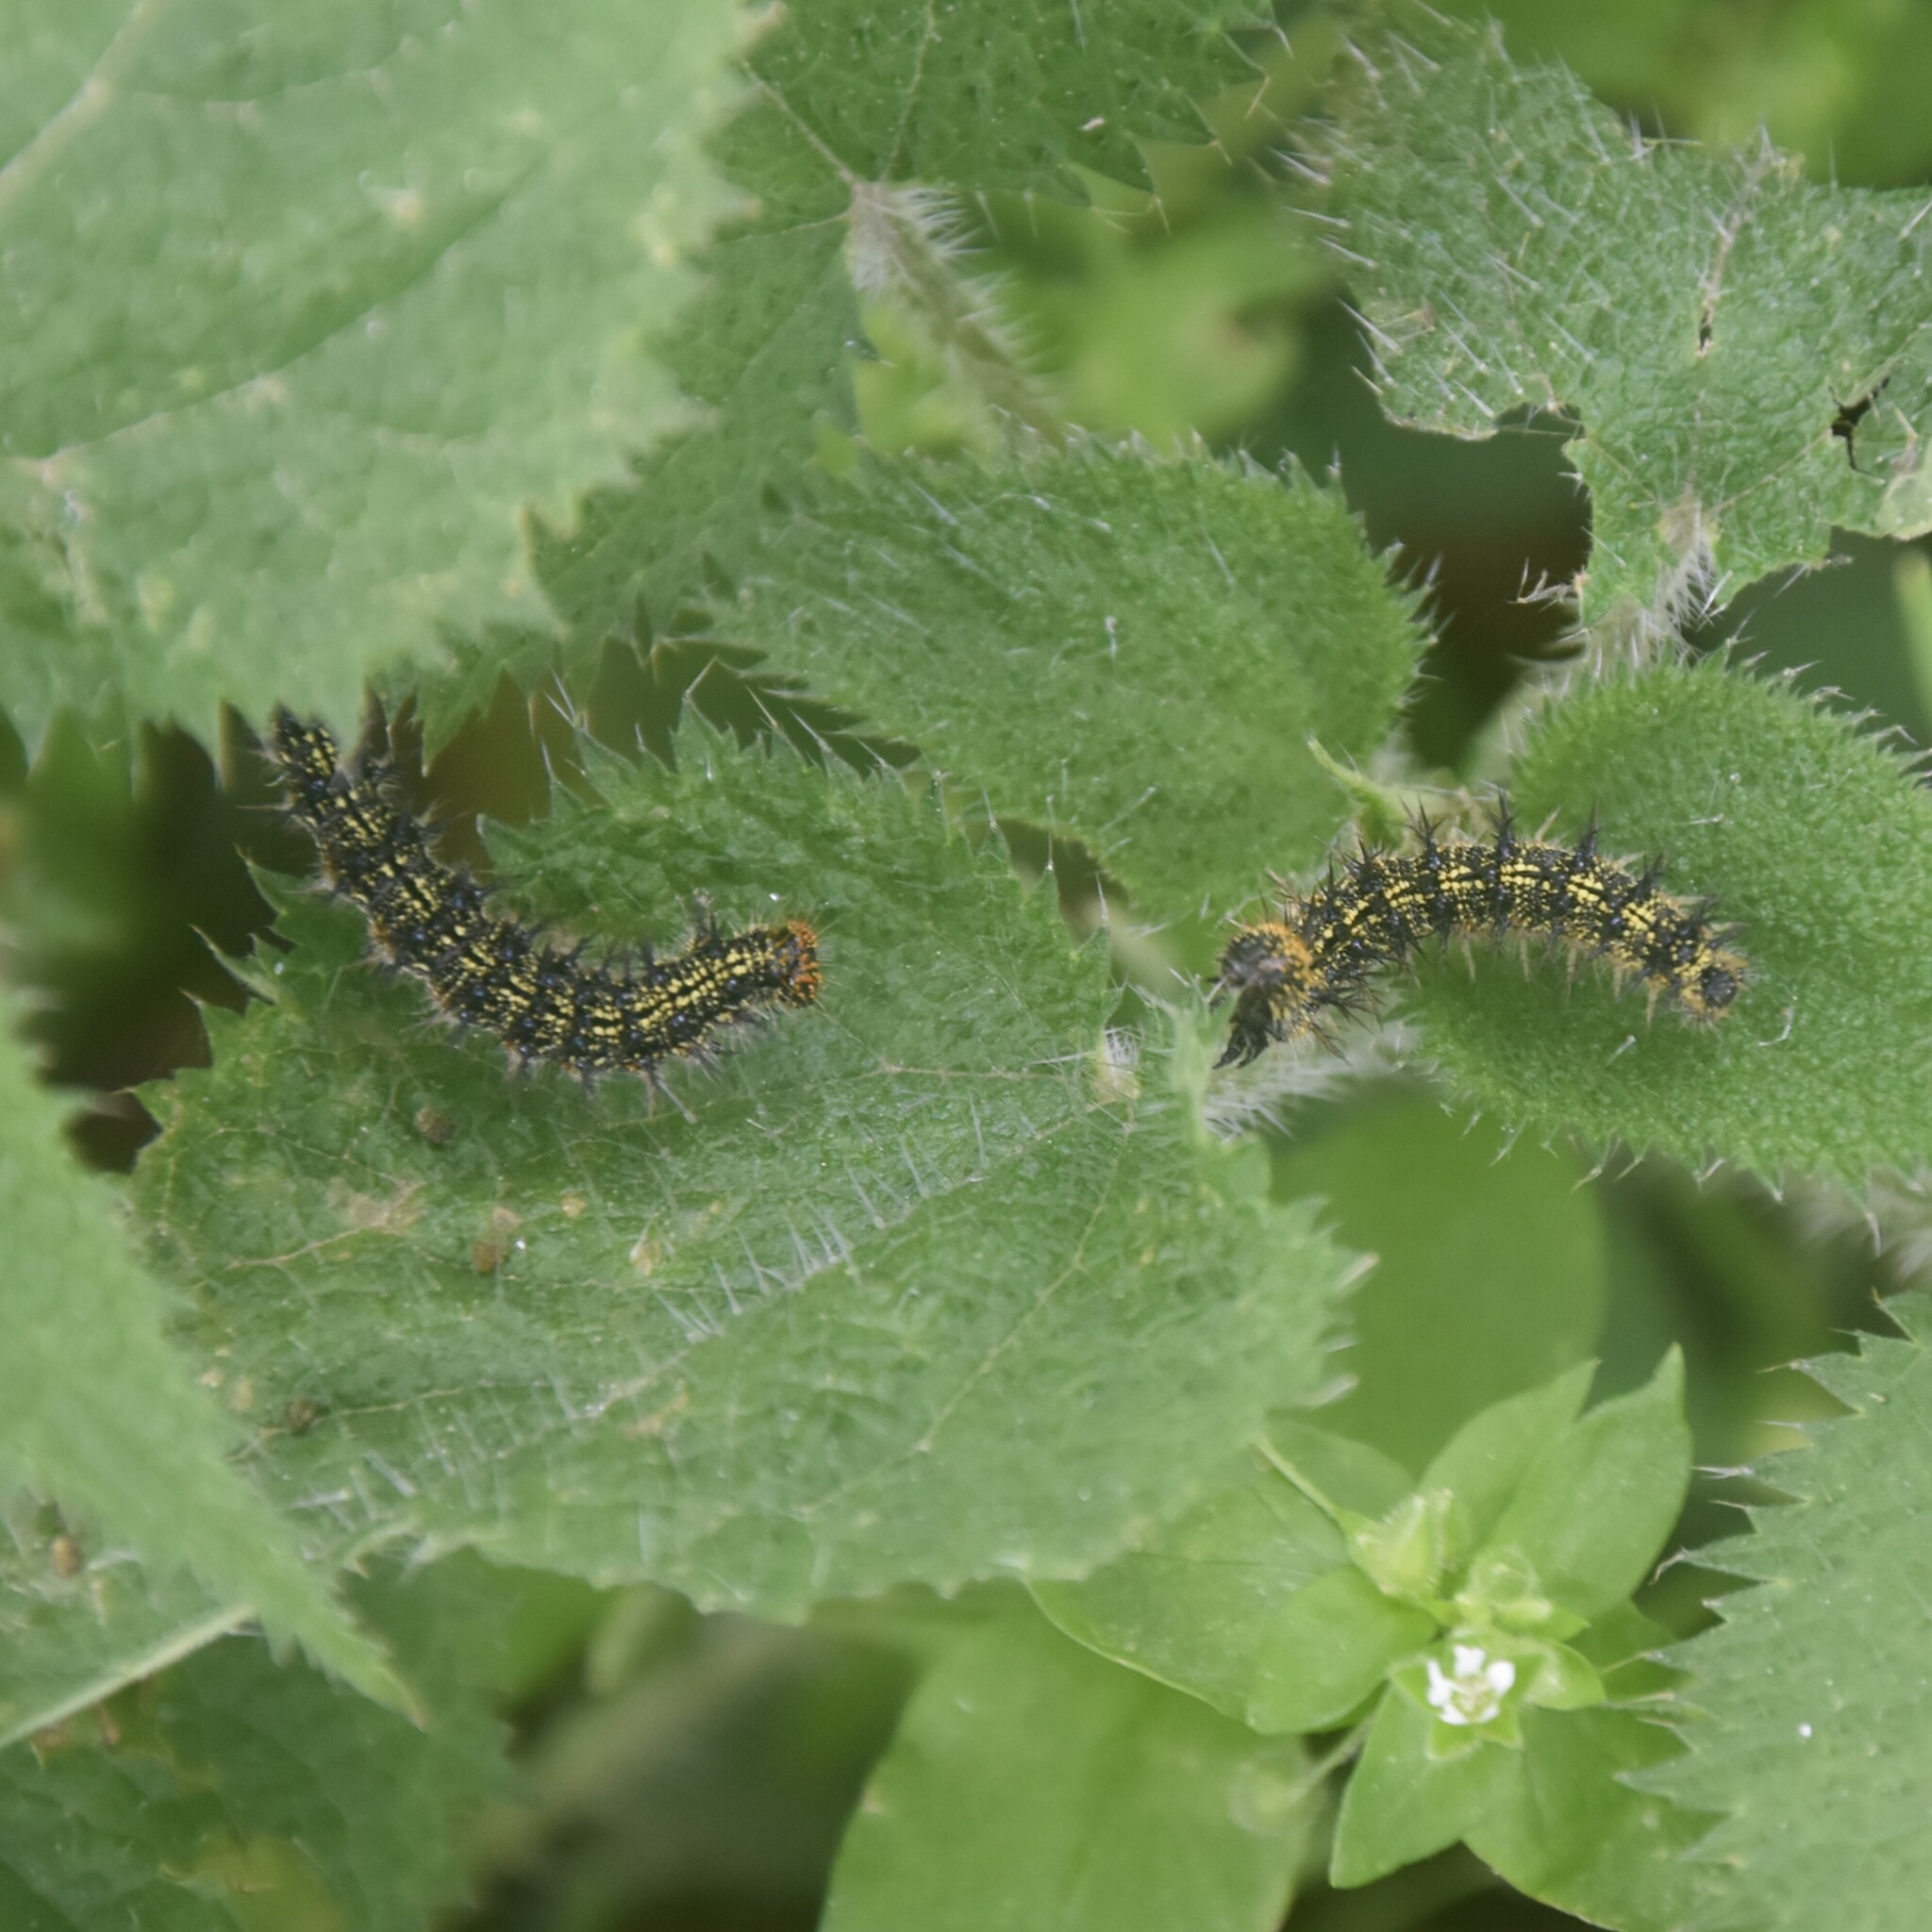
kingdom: Animalia
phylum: Arthropoda
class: Insecta
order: Lepidoptera
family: Nymphalidae
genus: Aglais
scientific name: Aglais caschmirensis
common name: Indian tortoiseshell
